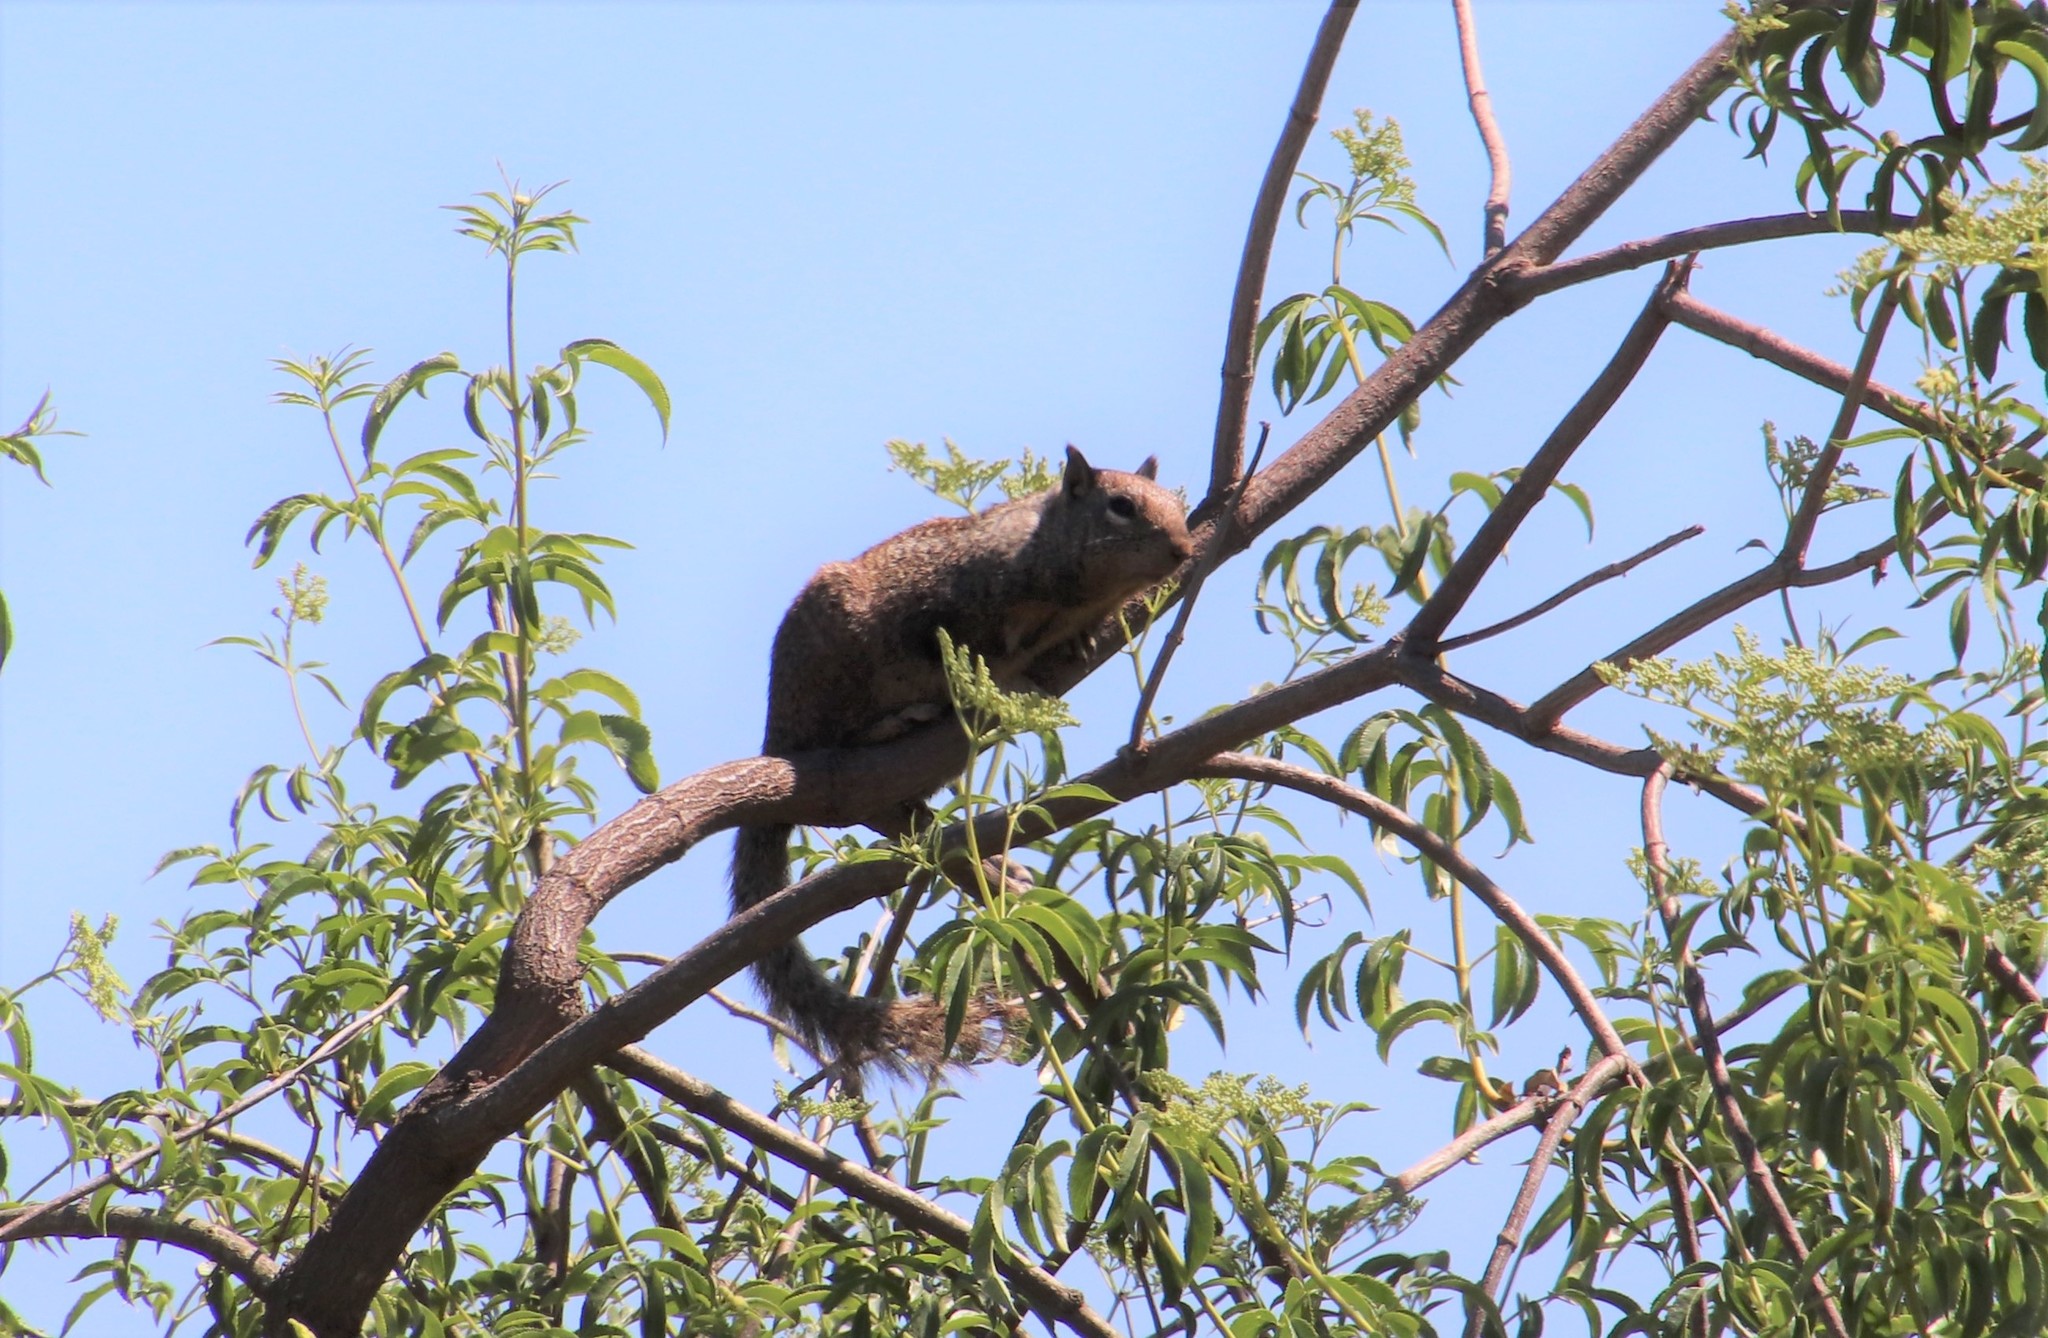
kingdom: Animalia
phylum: Chordata
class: Mammalia
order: Rodentia
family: Sciuridae
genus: Otospermophilus
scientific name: Otospermophilus beecheyi
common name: California ground squirrel
